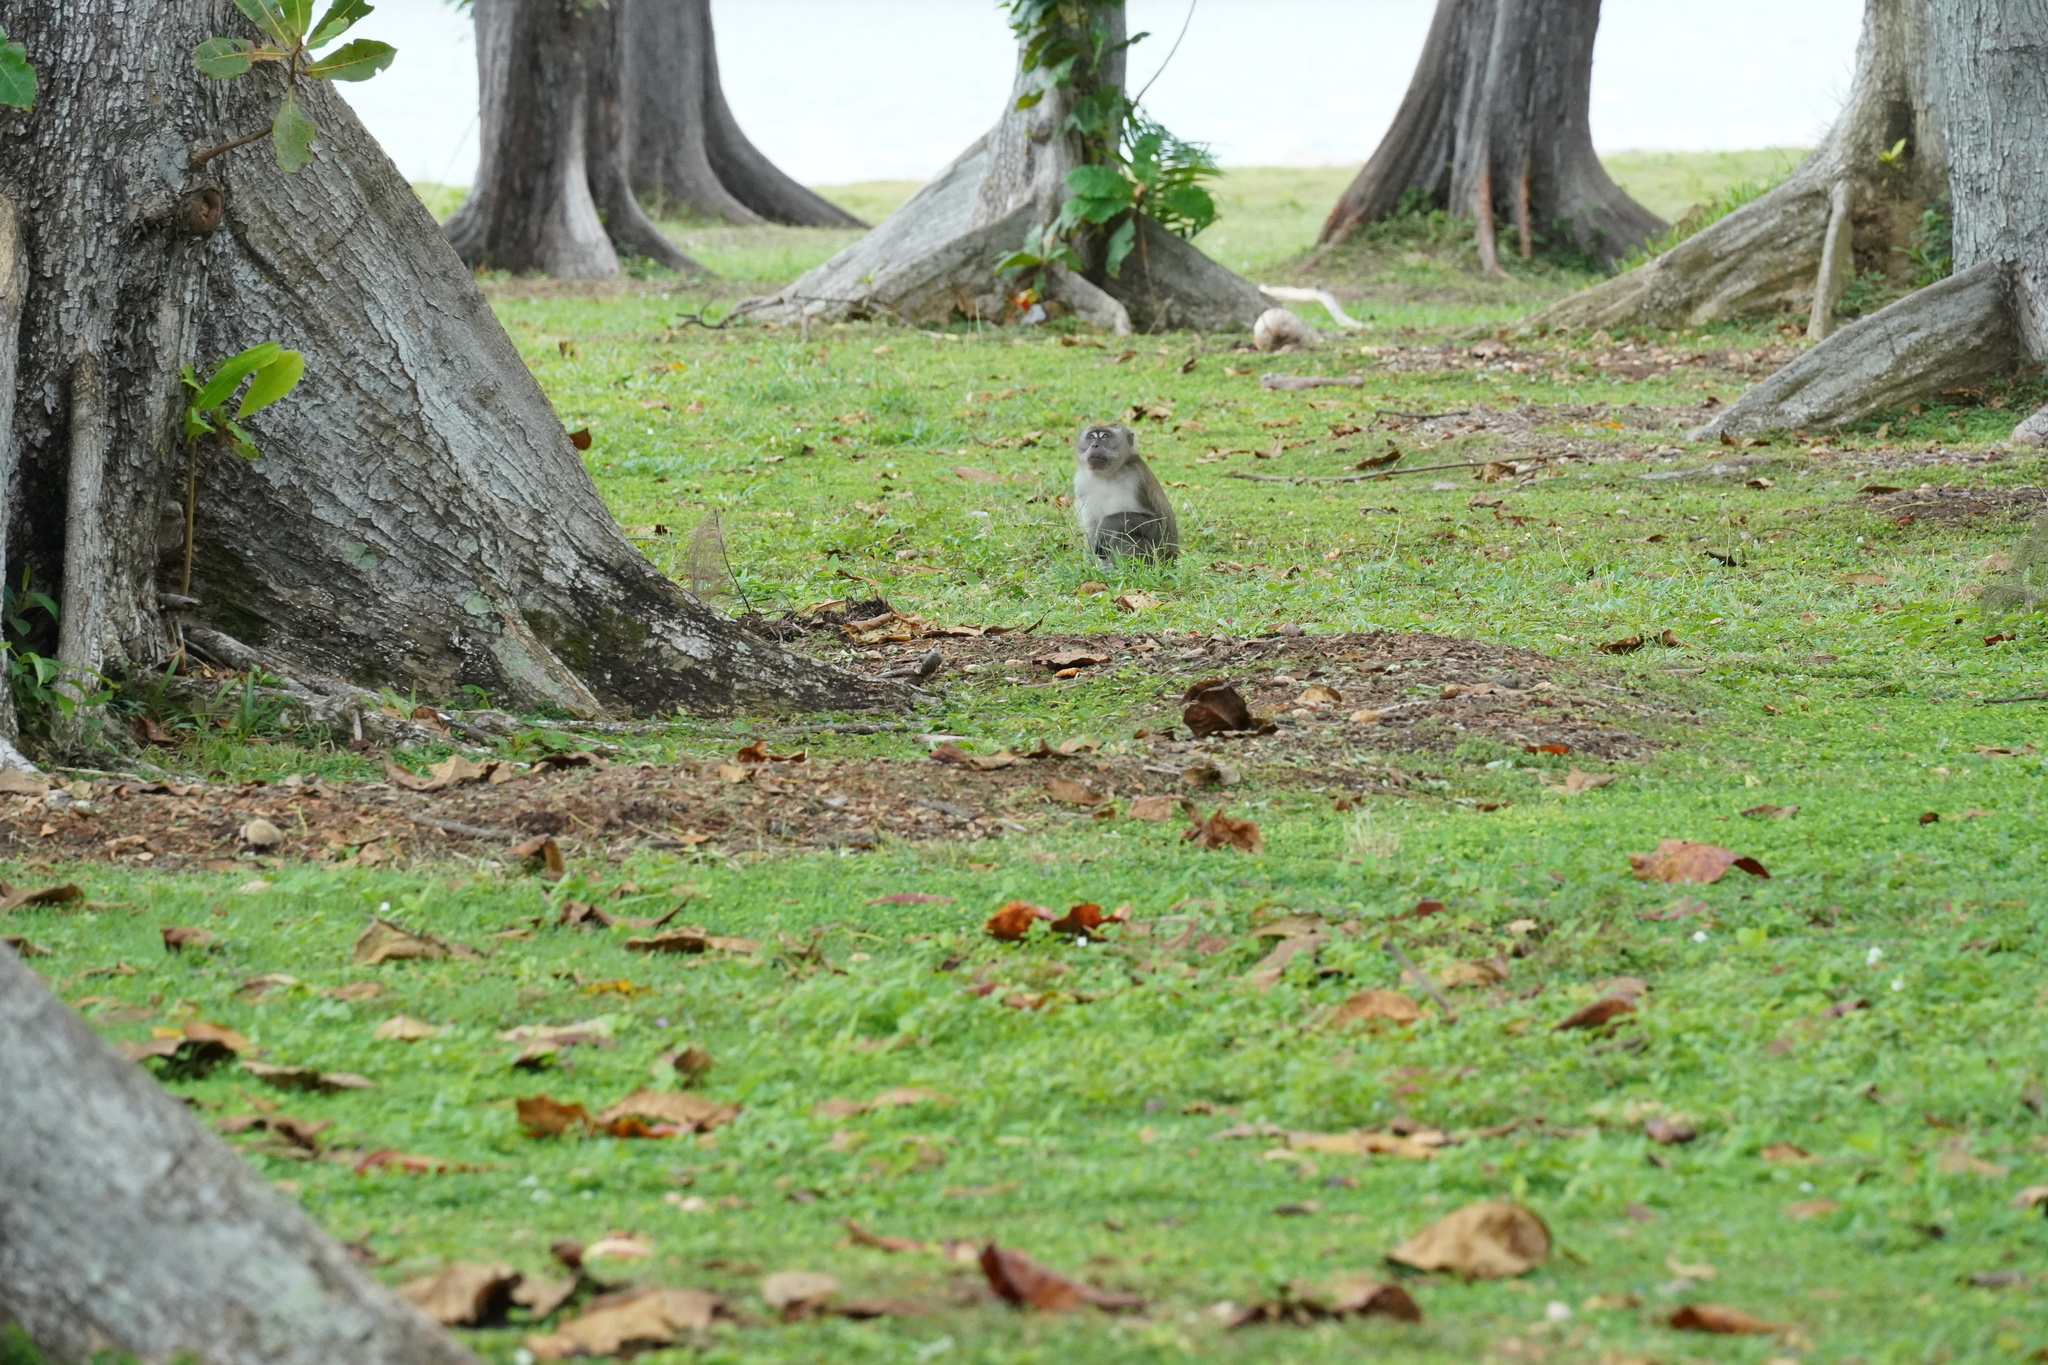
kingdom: Animalia
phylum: Chordata
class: Mammalia
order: Primates
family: Cercopithecidae
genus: Macaca
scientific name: Macaca fascicularis
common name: Crab-eating macaque
